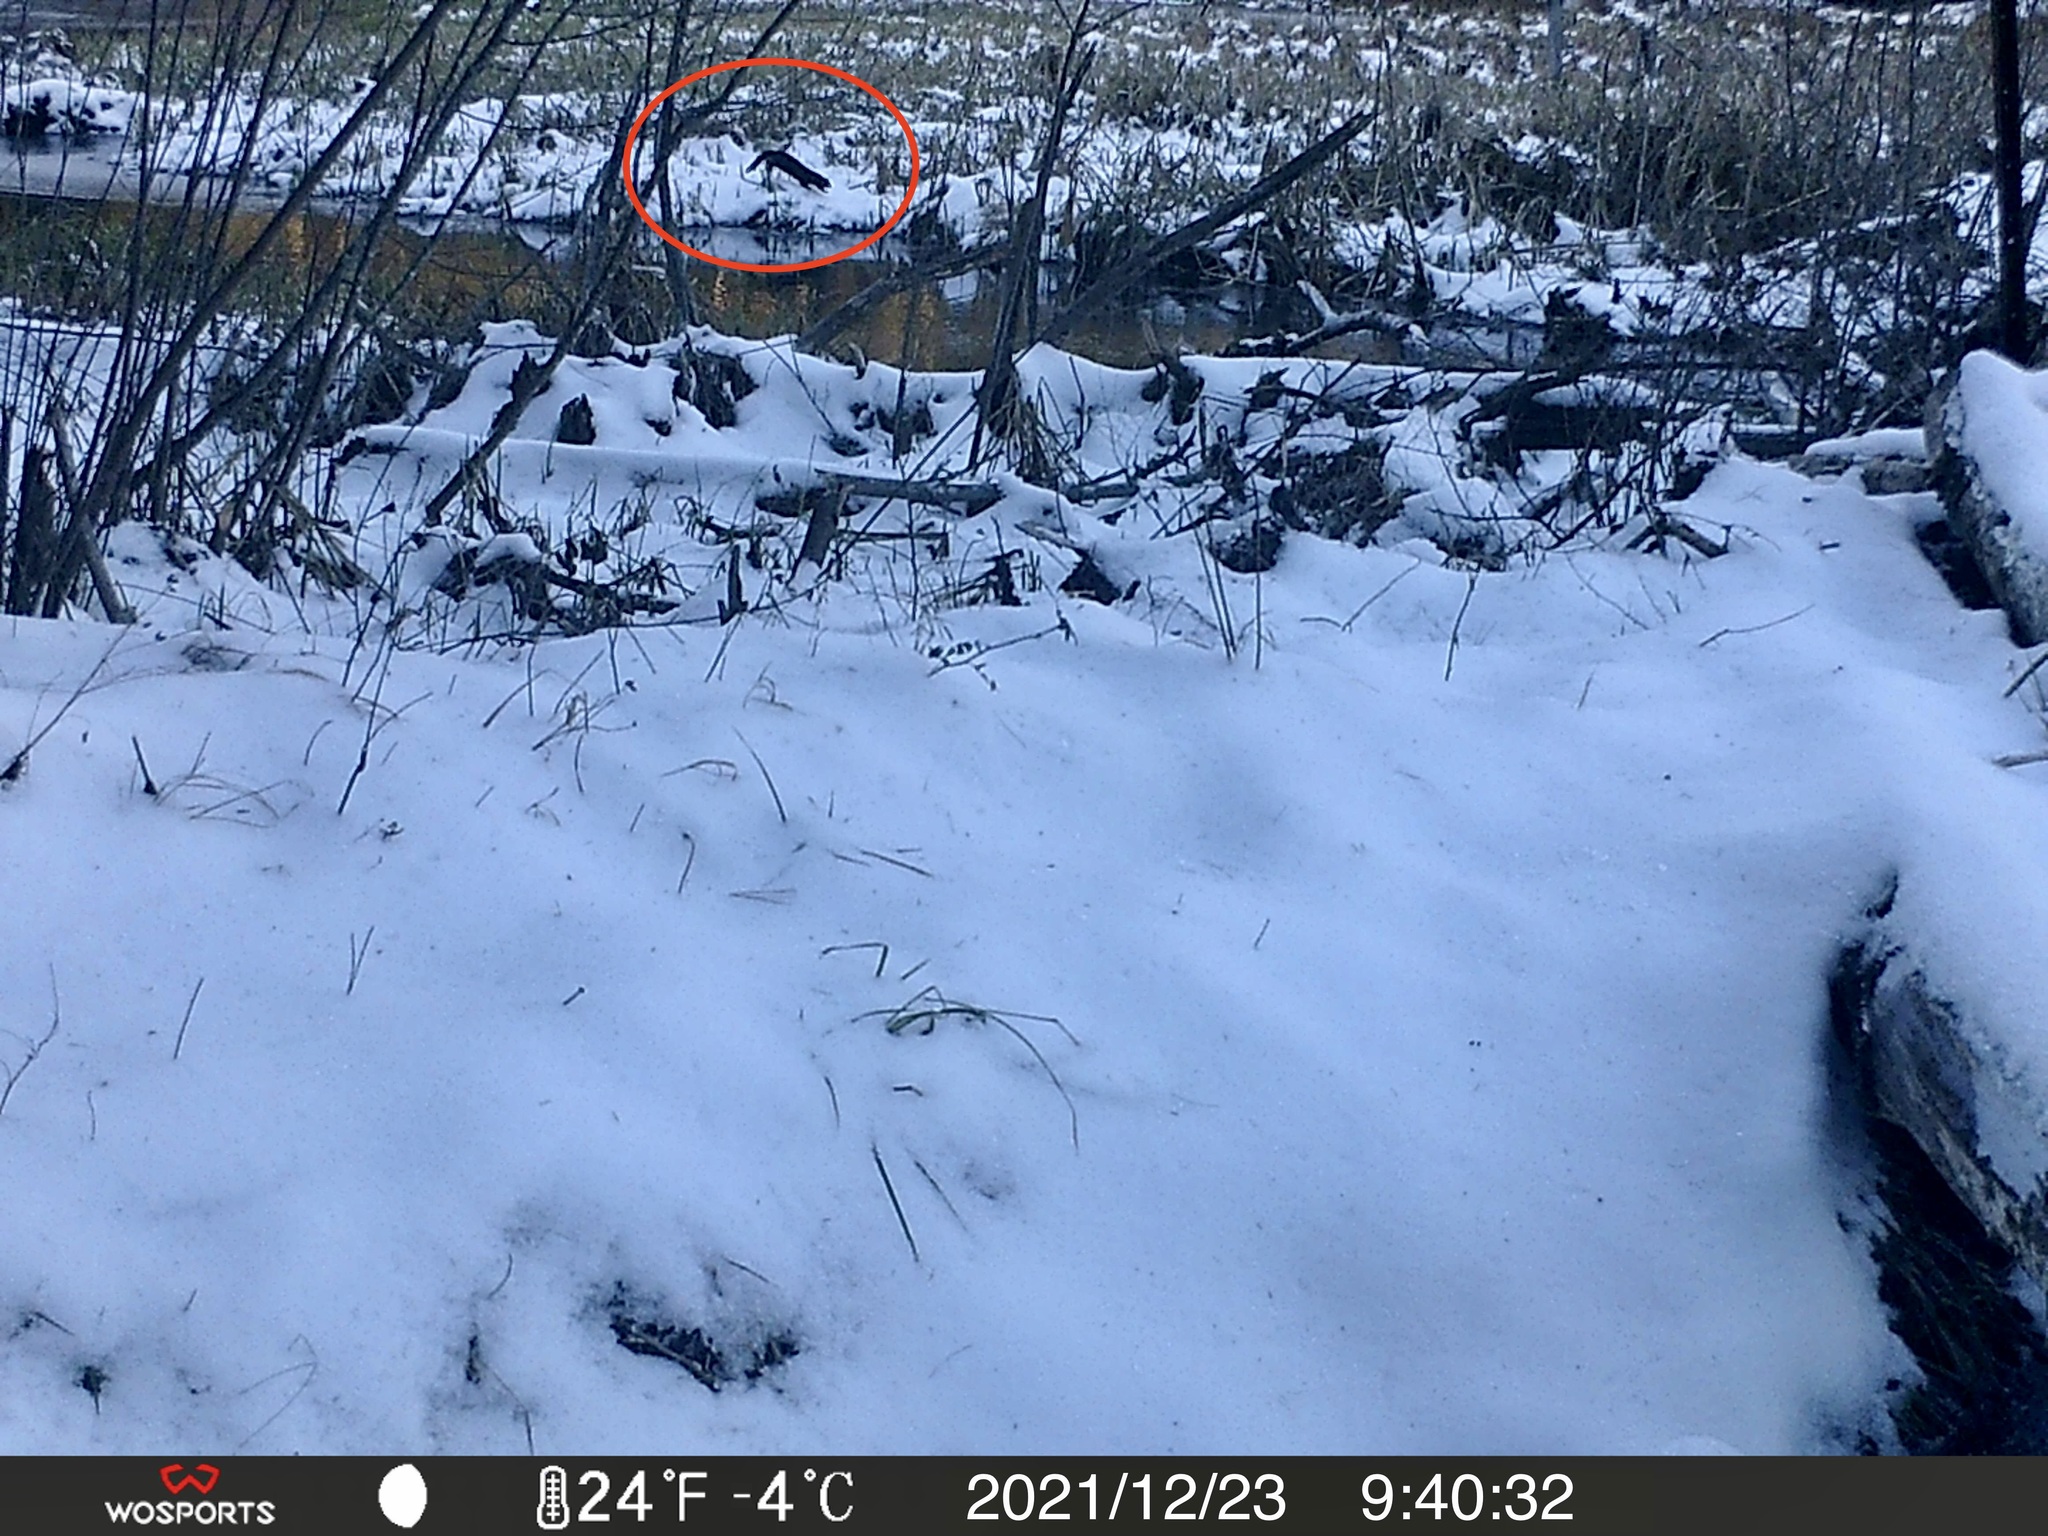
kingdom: Animalia
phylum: Chordata
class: Mammalia
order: Carnivora
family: Mustelidae
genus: Mustela
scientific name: Mustela
